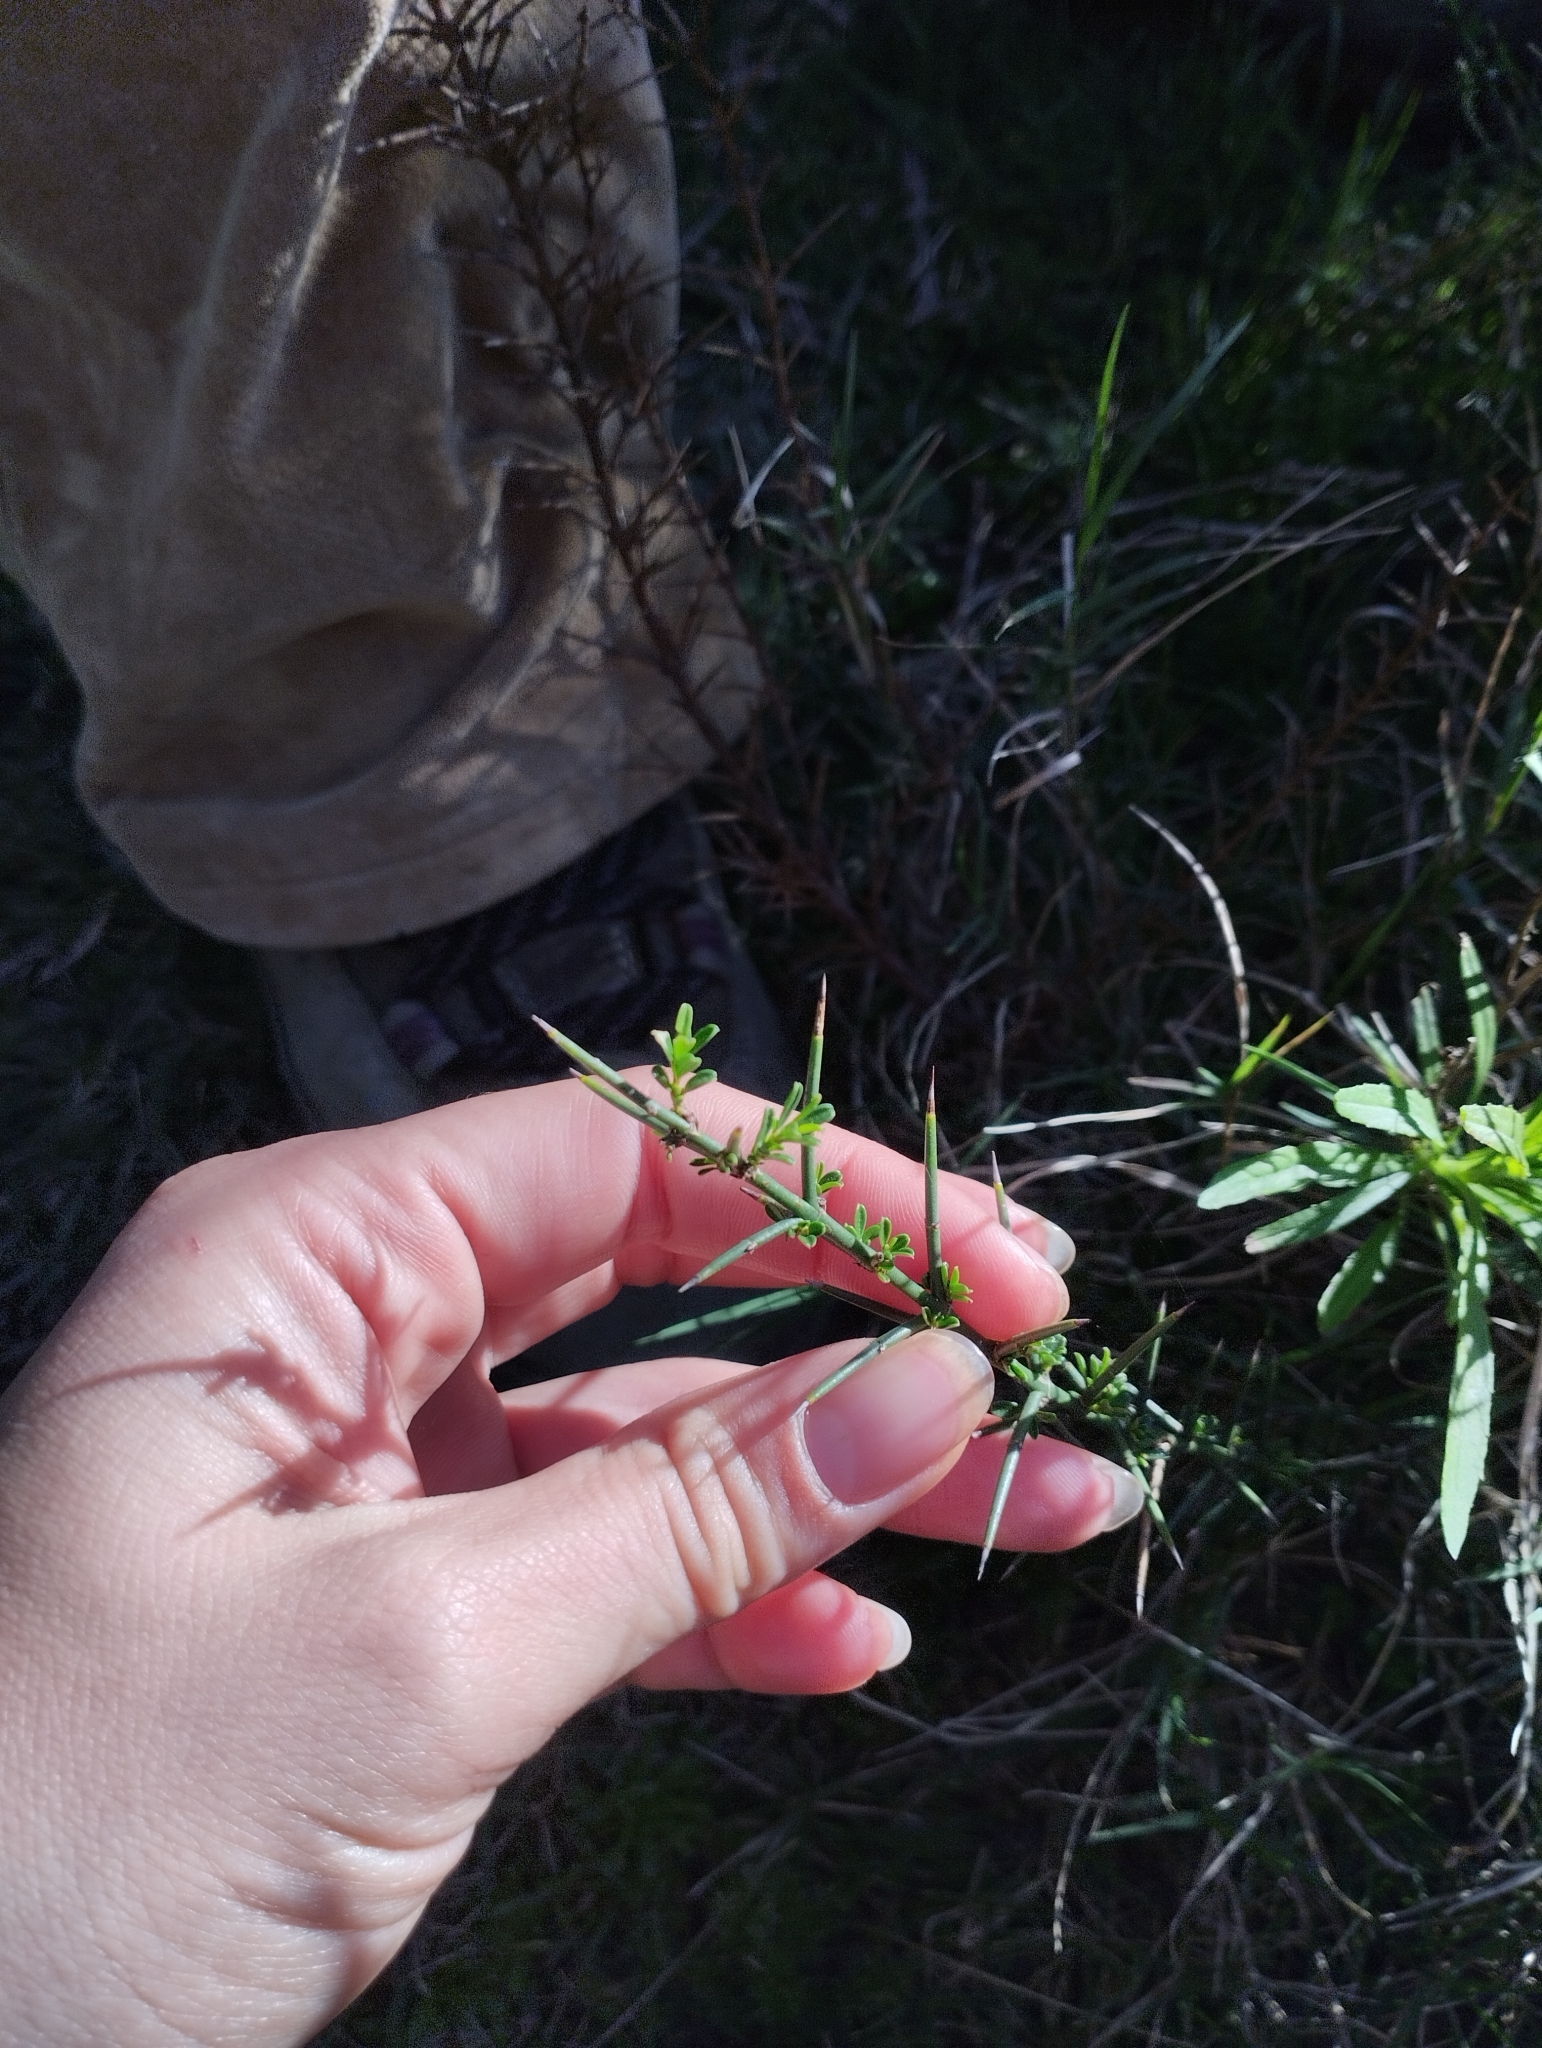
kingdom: Plantae
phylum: Tracheophyta
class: Magnoliopsida
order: Rosales
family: Rhamnaceae
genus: Discaria
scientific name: Discaria americana
